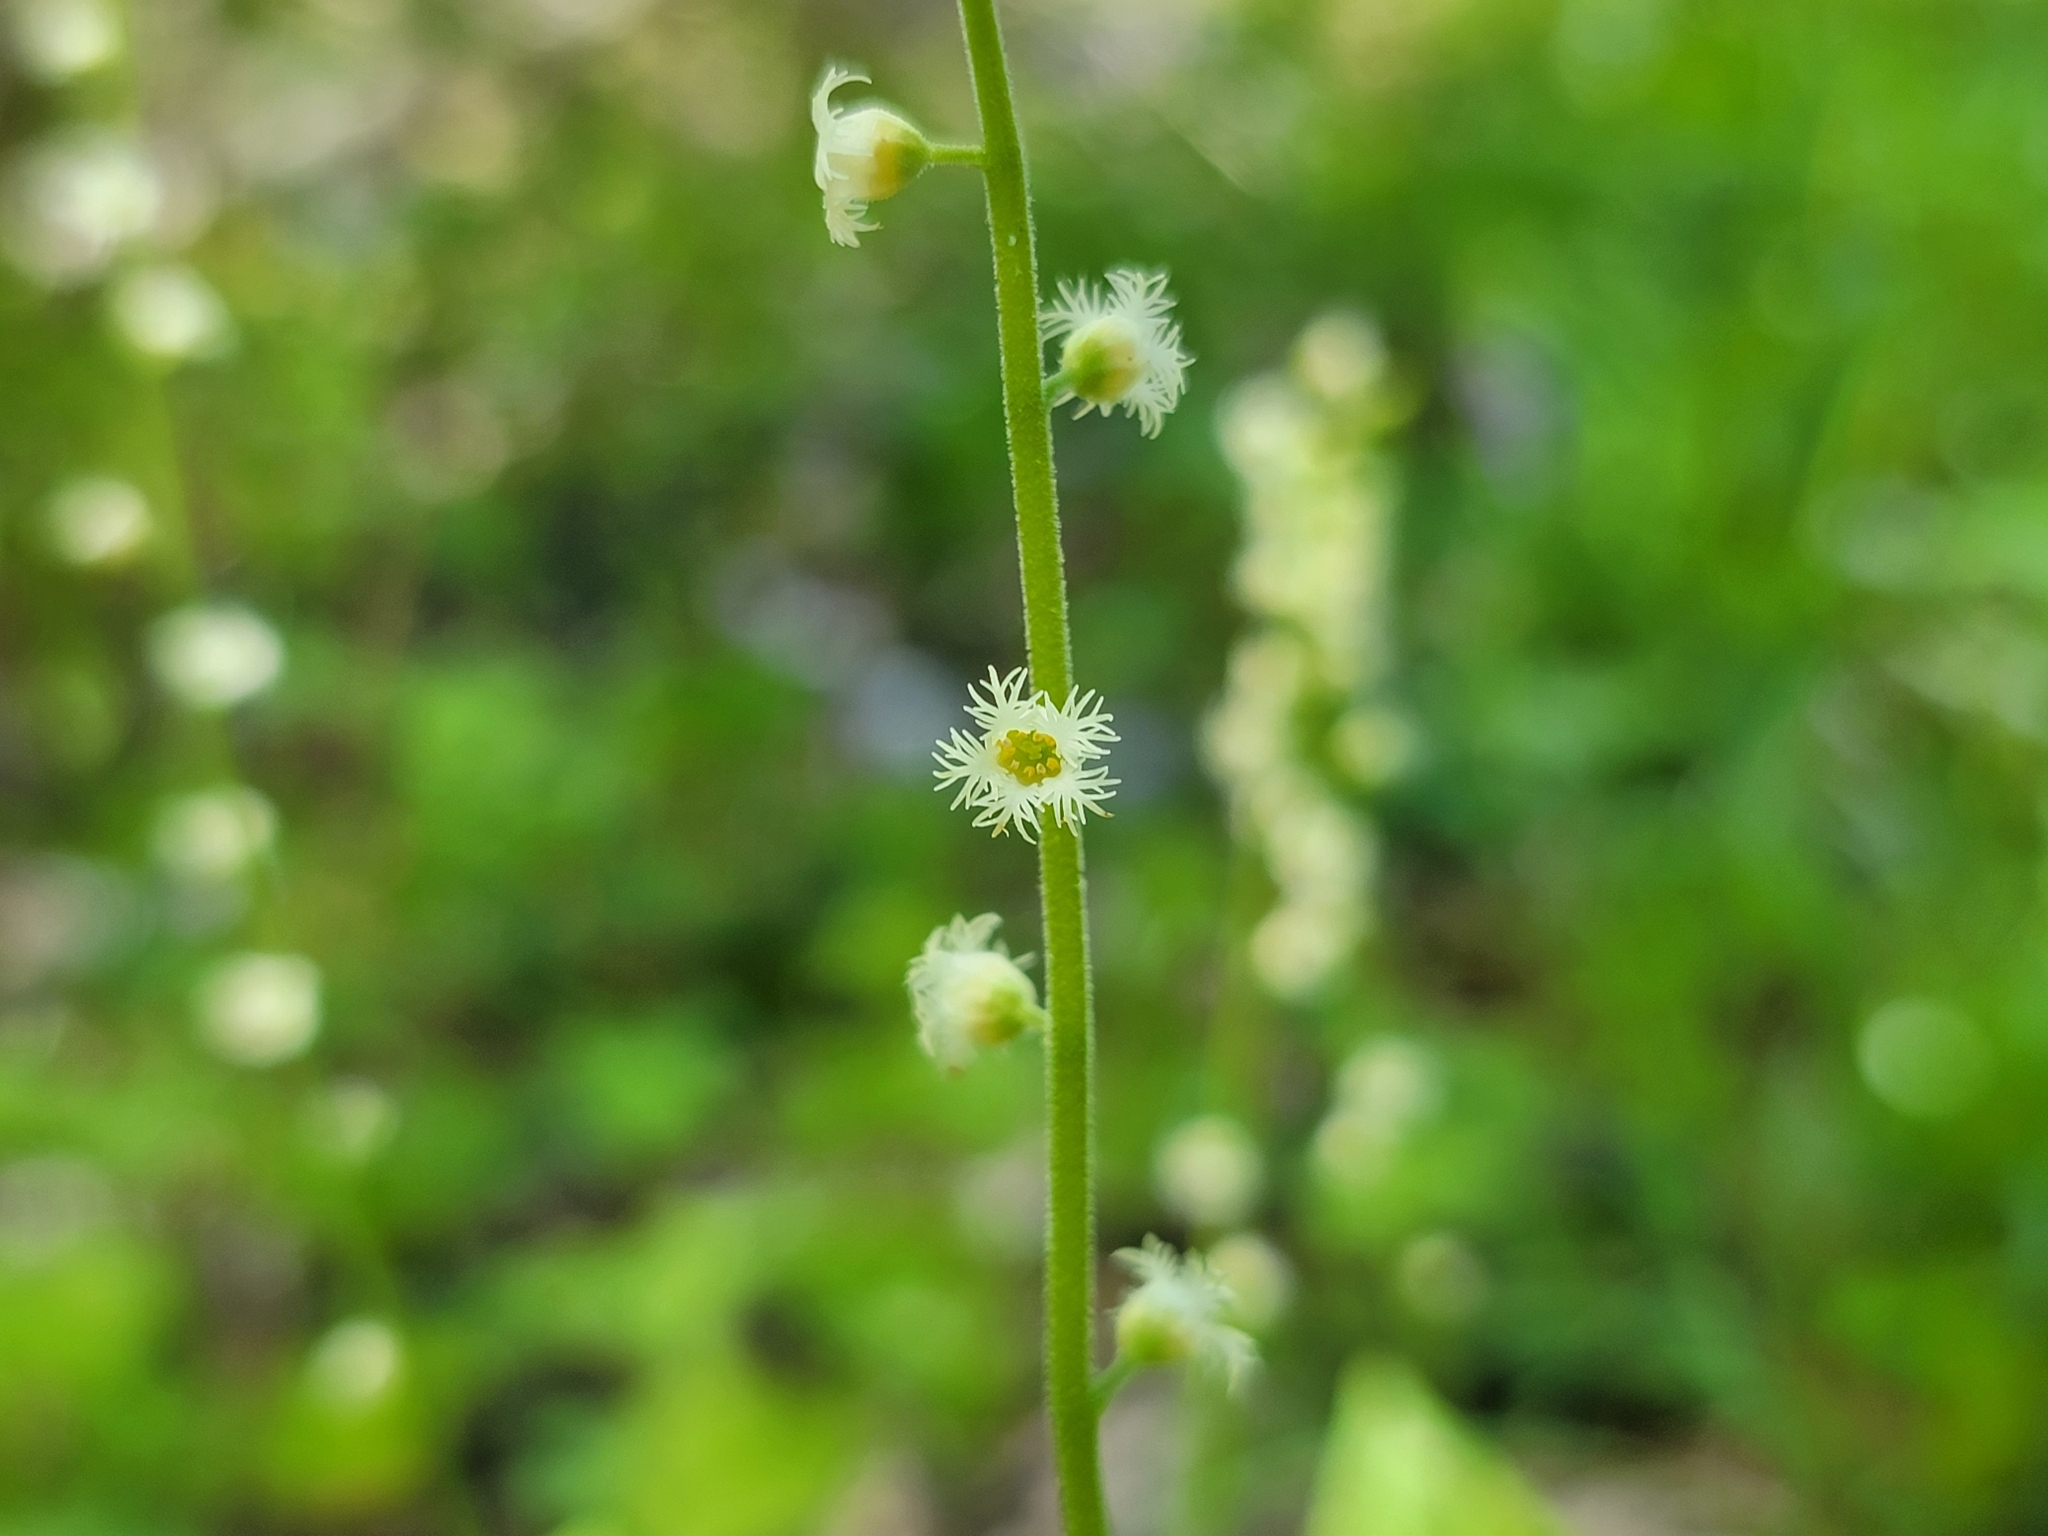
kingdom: Plantae
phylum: Tracheophyta
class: Magnoliopsida
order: Saxifragales
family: Saxifragaceae
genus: Mitella
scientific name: Mitella diphylla
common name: Coolwort
